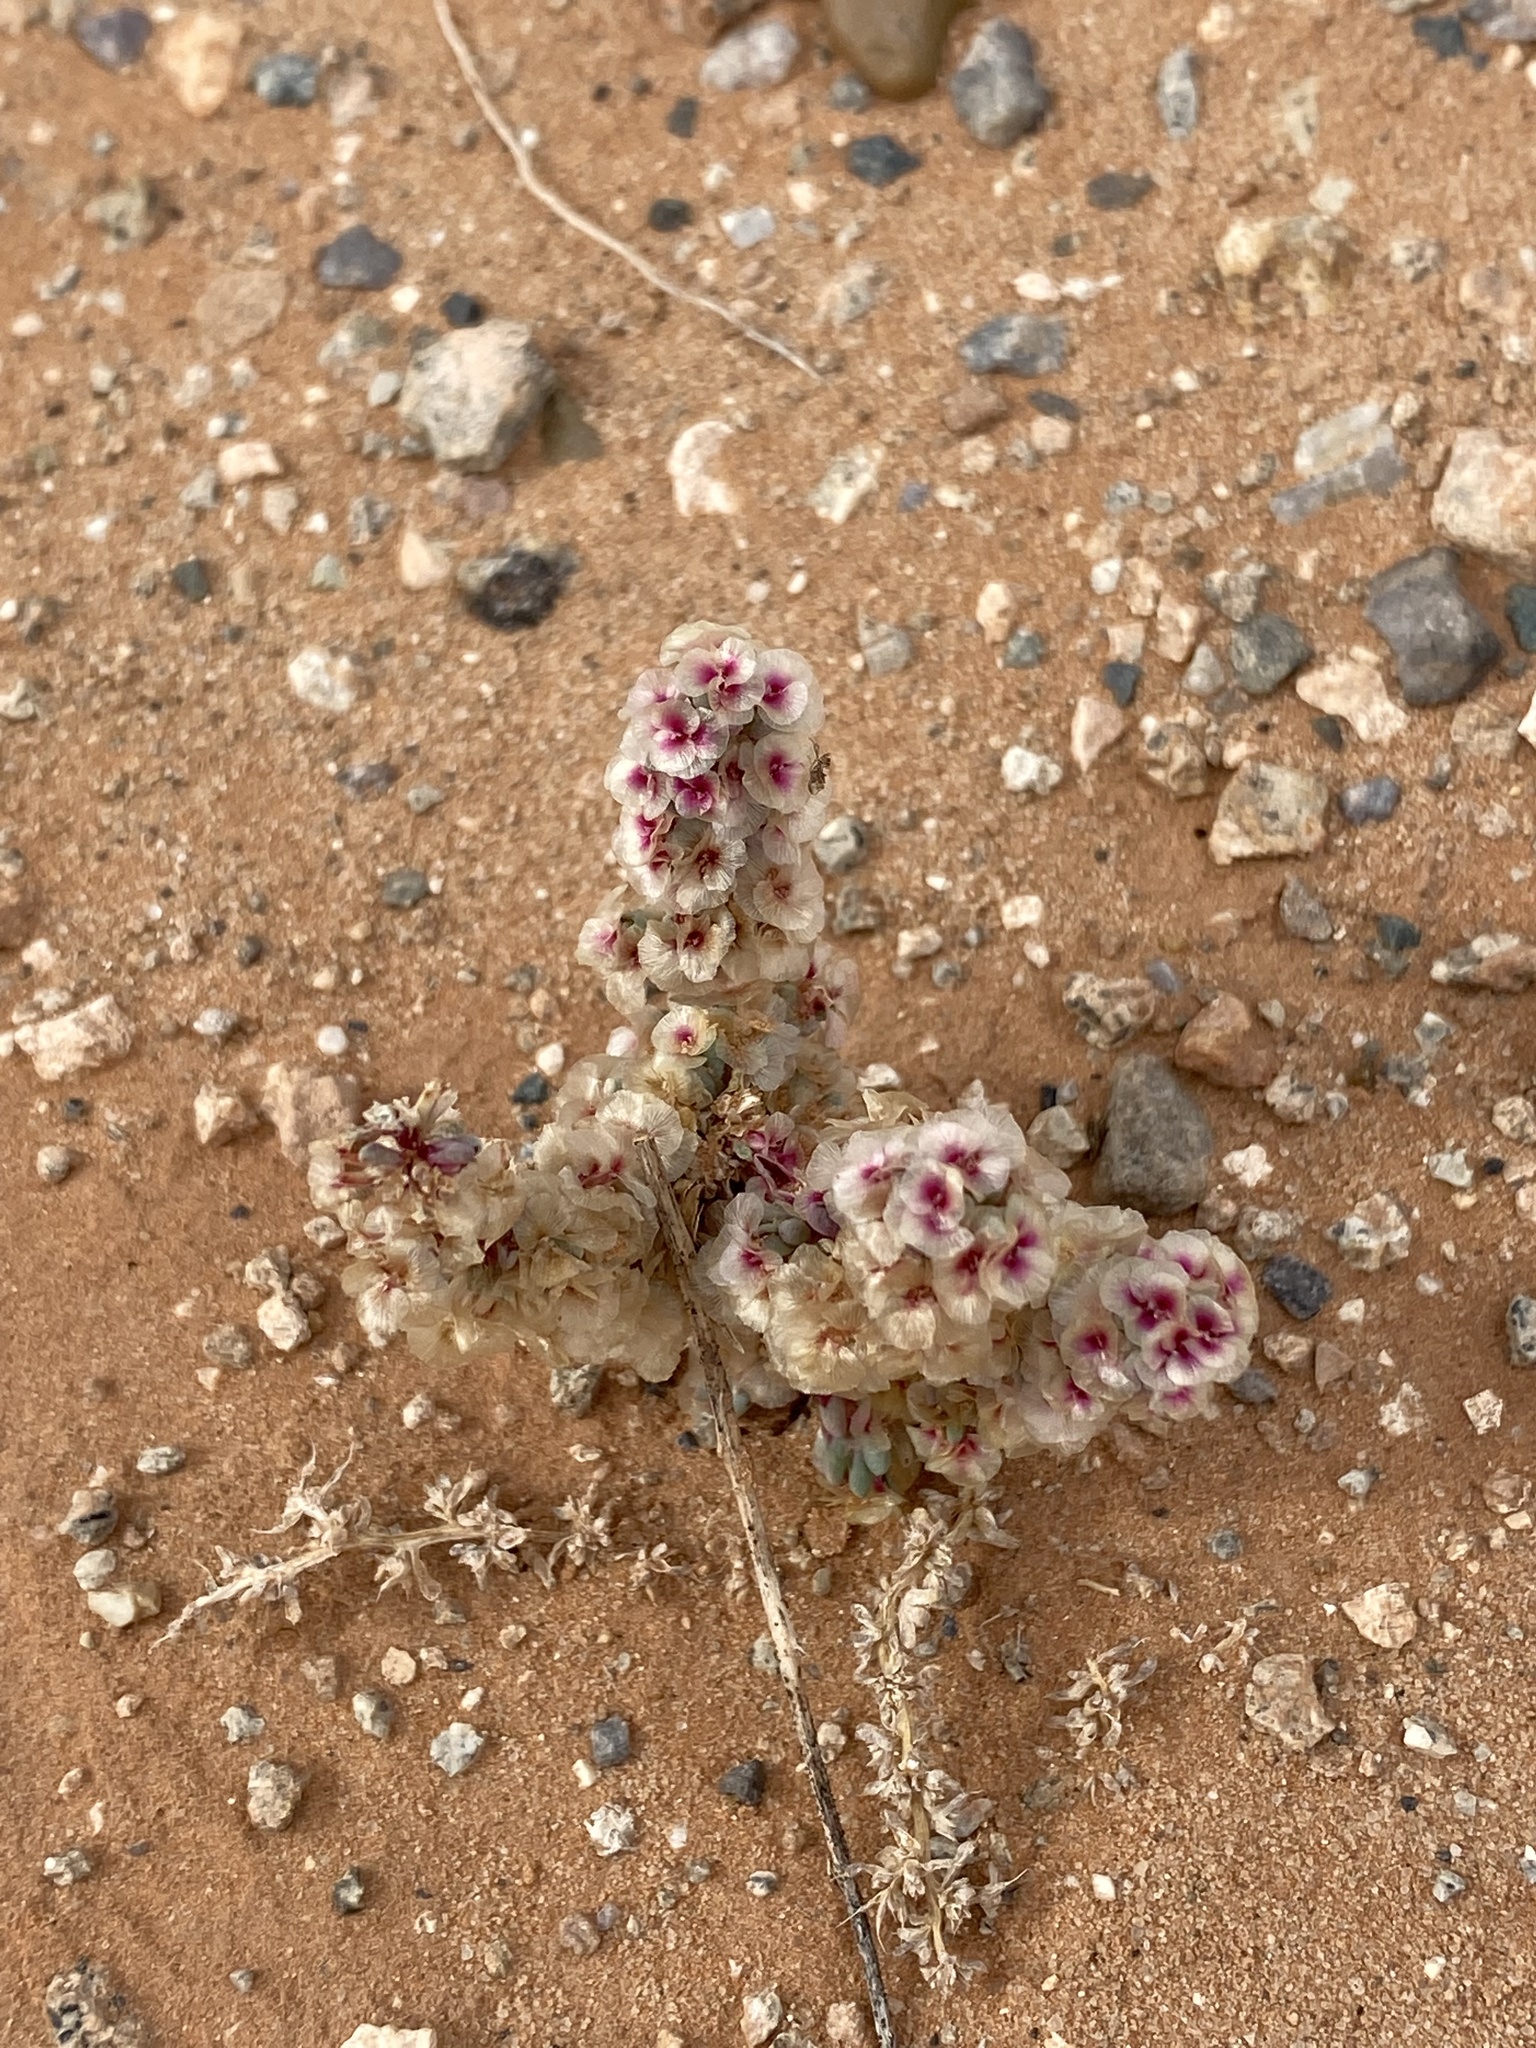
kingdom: Plantae
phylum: Tracheophyta
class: Magnoliopsida
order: Caryophyllales
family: Amaranthaceae
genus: Halogeton
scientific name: Halogeton glomeratus
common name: Saltlover
